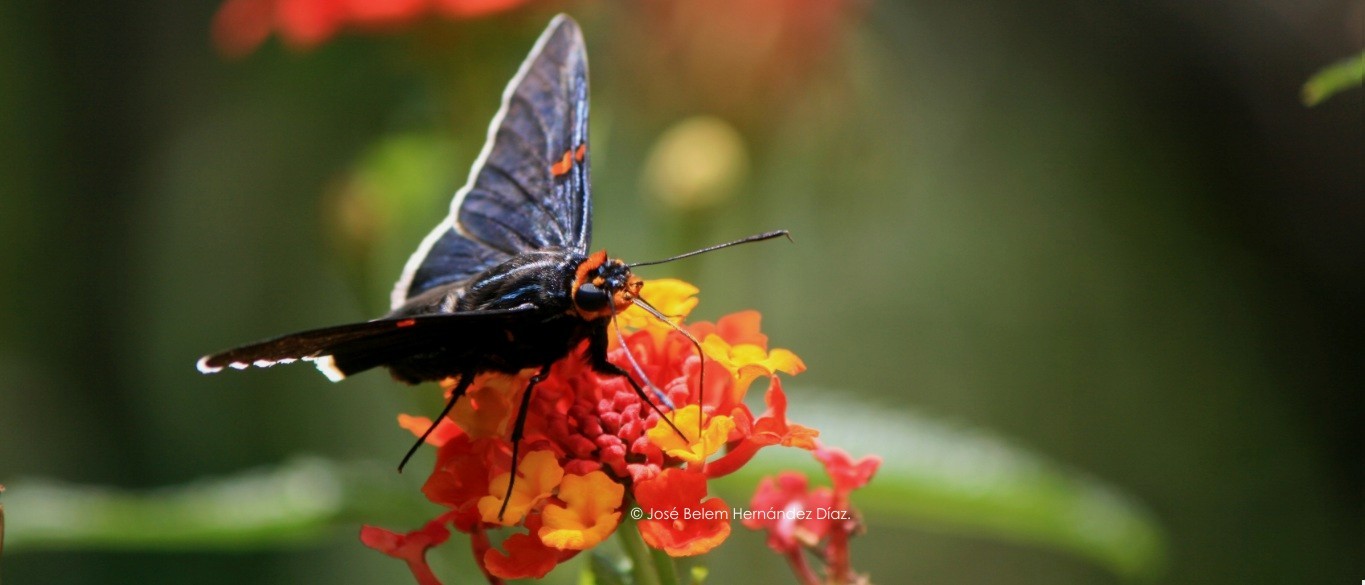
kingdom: Animalia
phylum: Arthropoda
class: Insecta
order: Lepidoptera
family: Hesperiidae
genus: Phocides
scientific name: Phocides lilea
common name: Guava skipper
